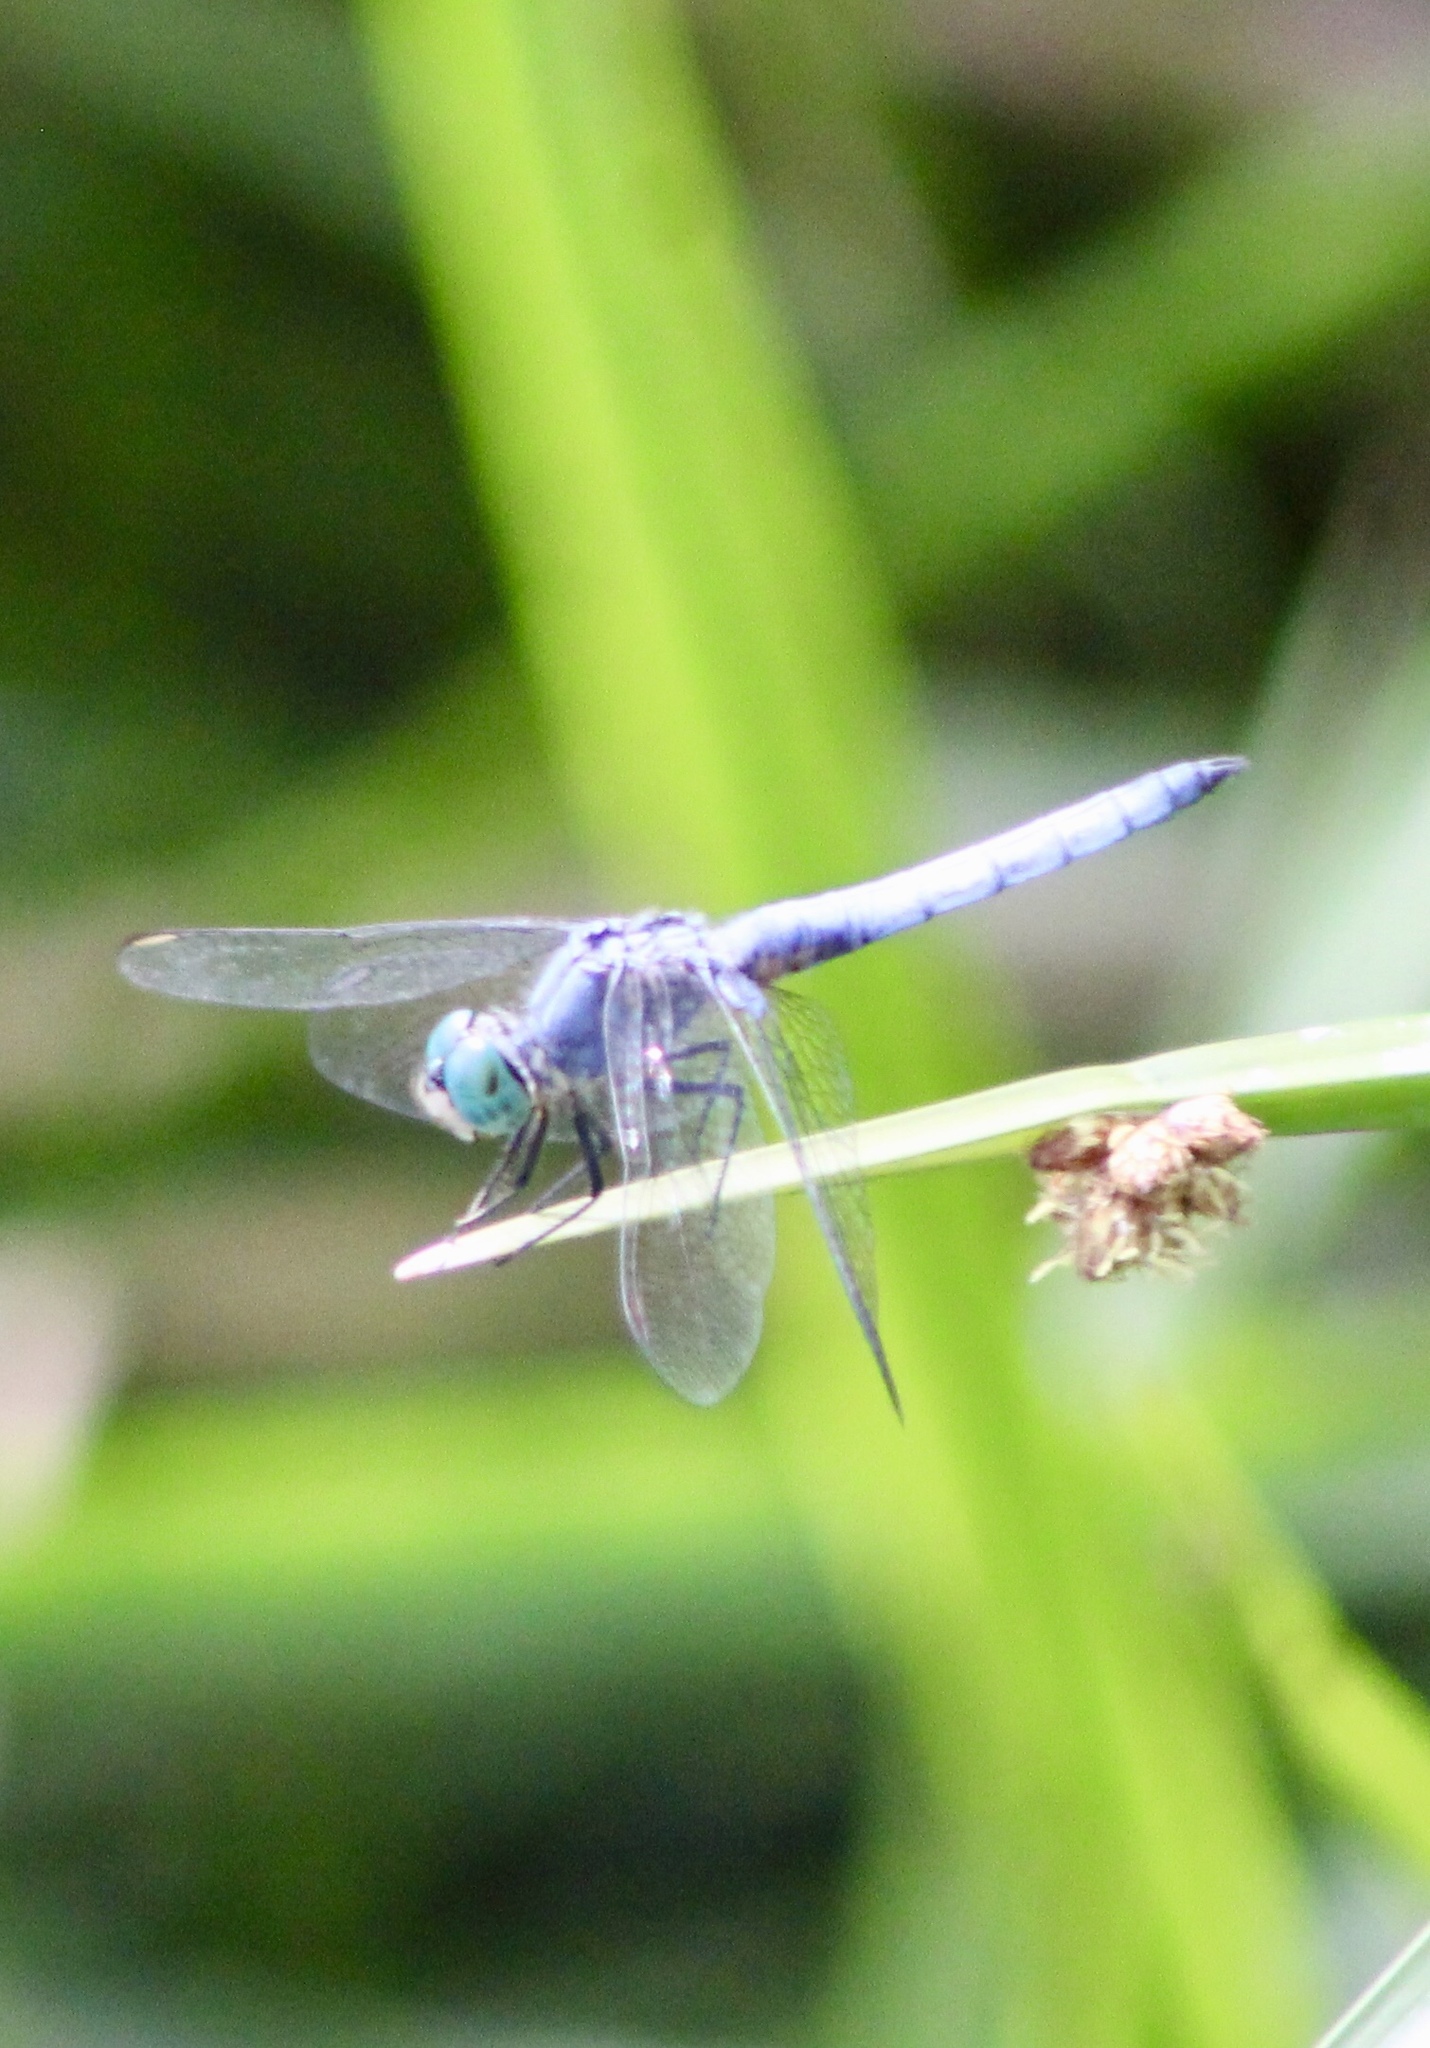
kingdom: Animalia
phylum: Arthropoda
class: Insecta
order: Odonata
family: Libellulidae
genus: Pachydiplax
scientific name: Pachydiplax longipennis
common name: Blue dasher
